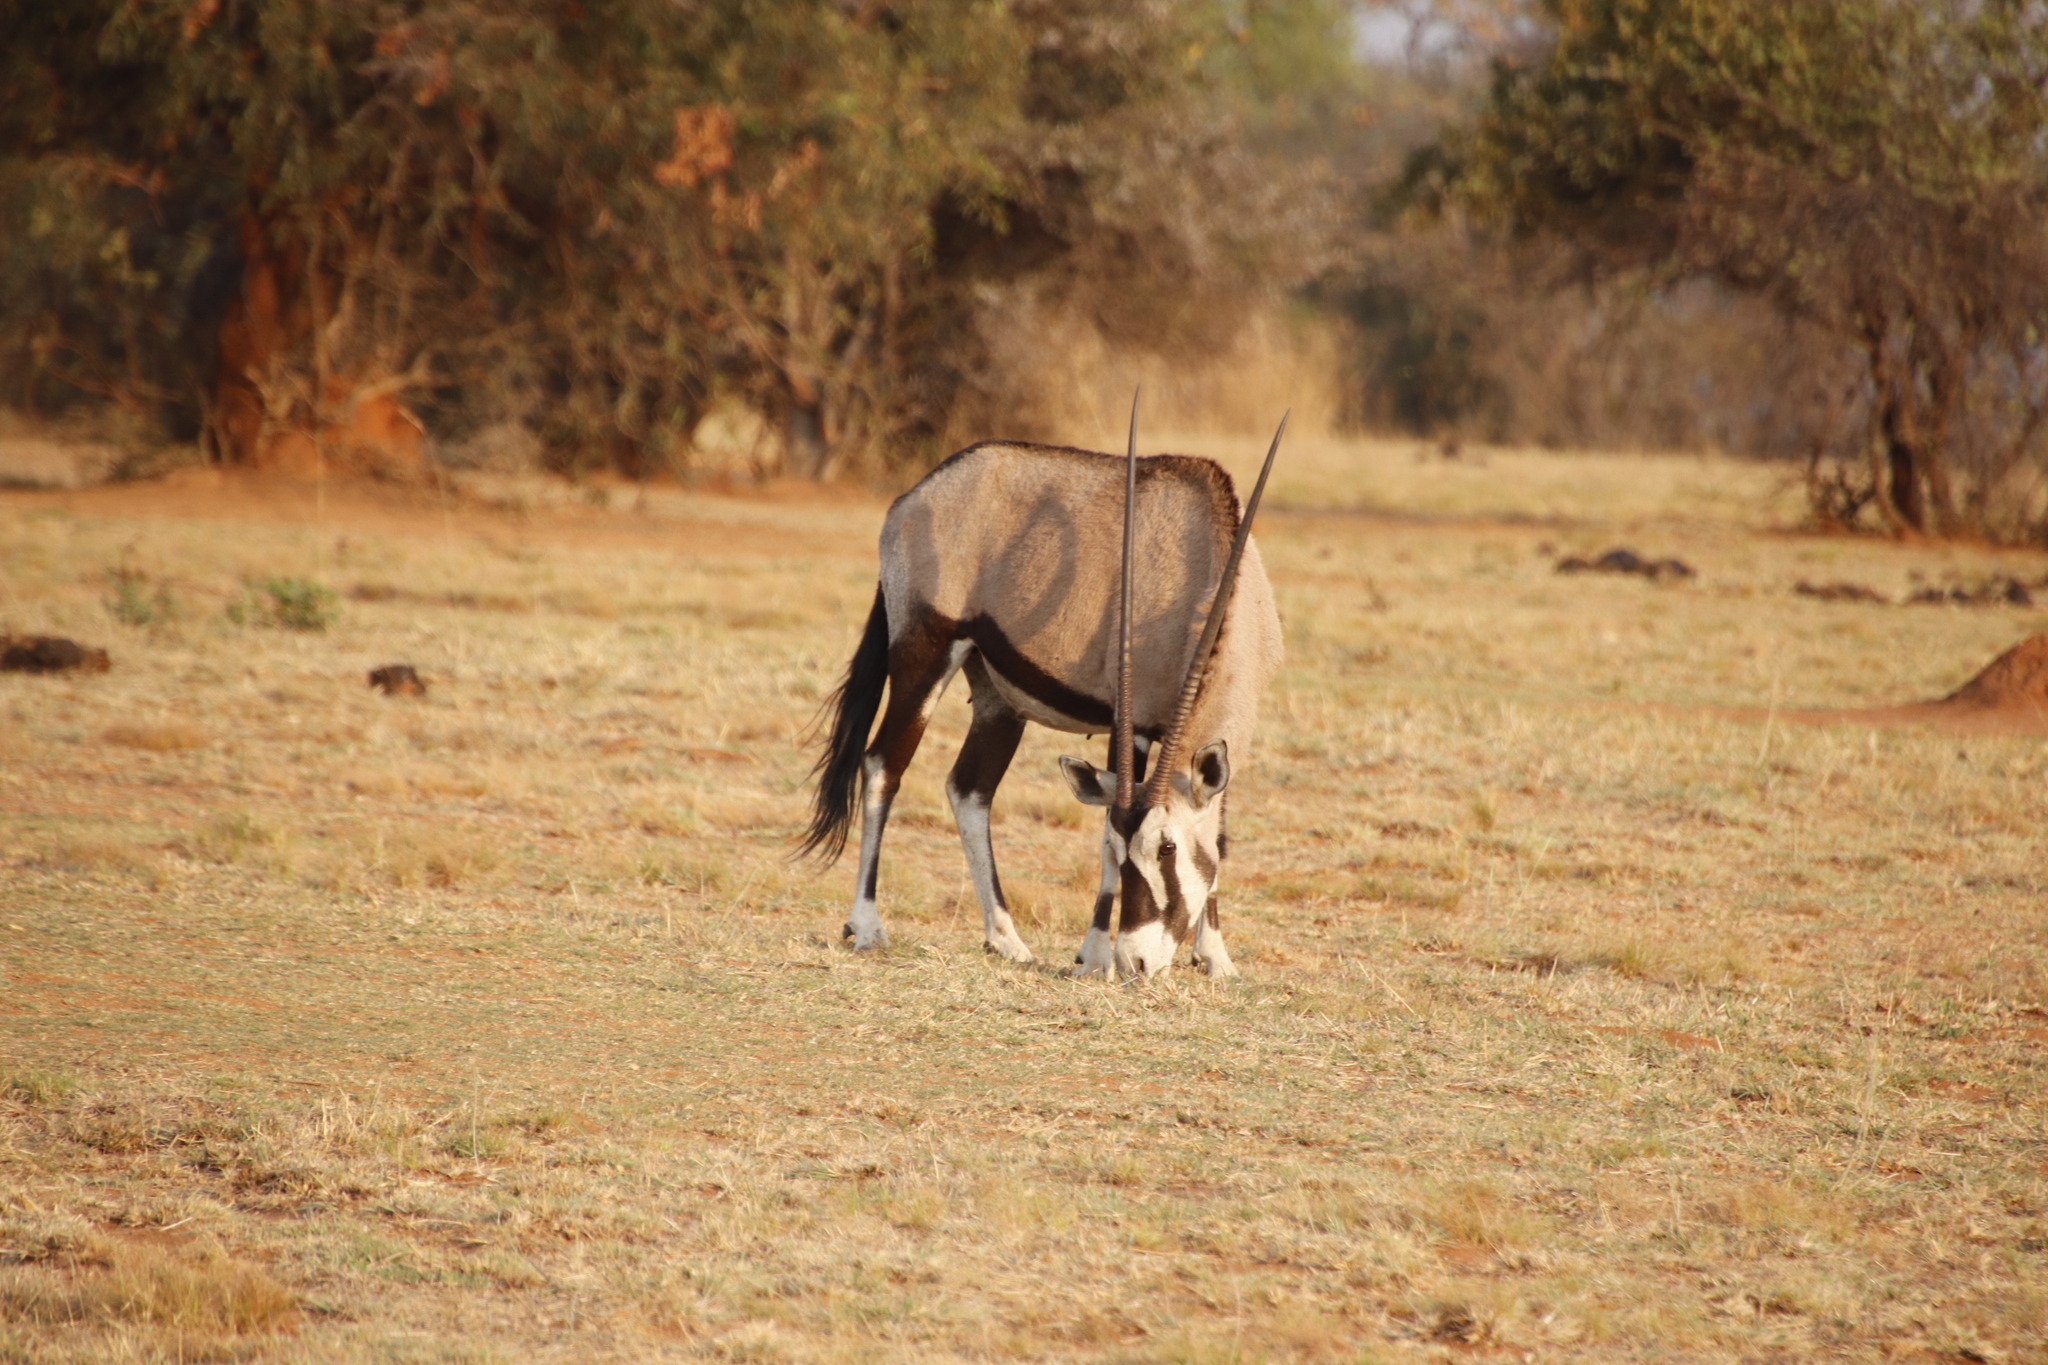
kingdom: Animalia
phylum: Chordata
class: Mammalia
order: Artiodactyla
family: Bovidae
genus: Oryx
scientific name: Oryx gazella
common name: Gemsbok
